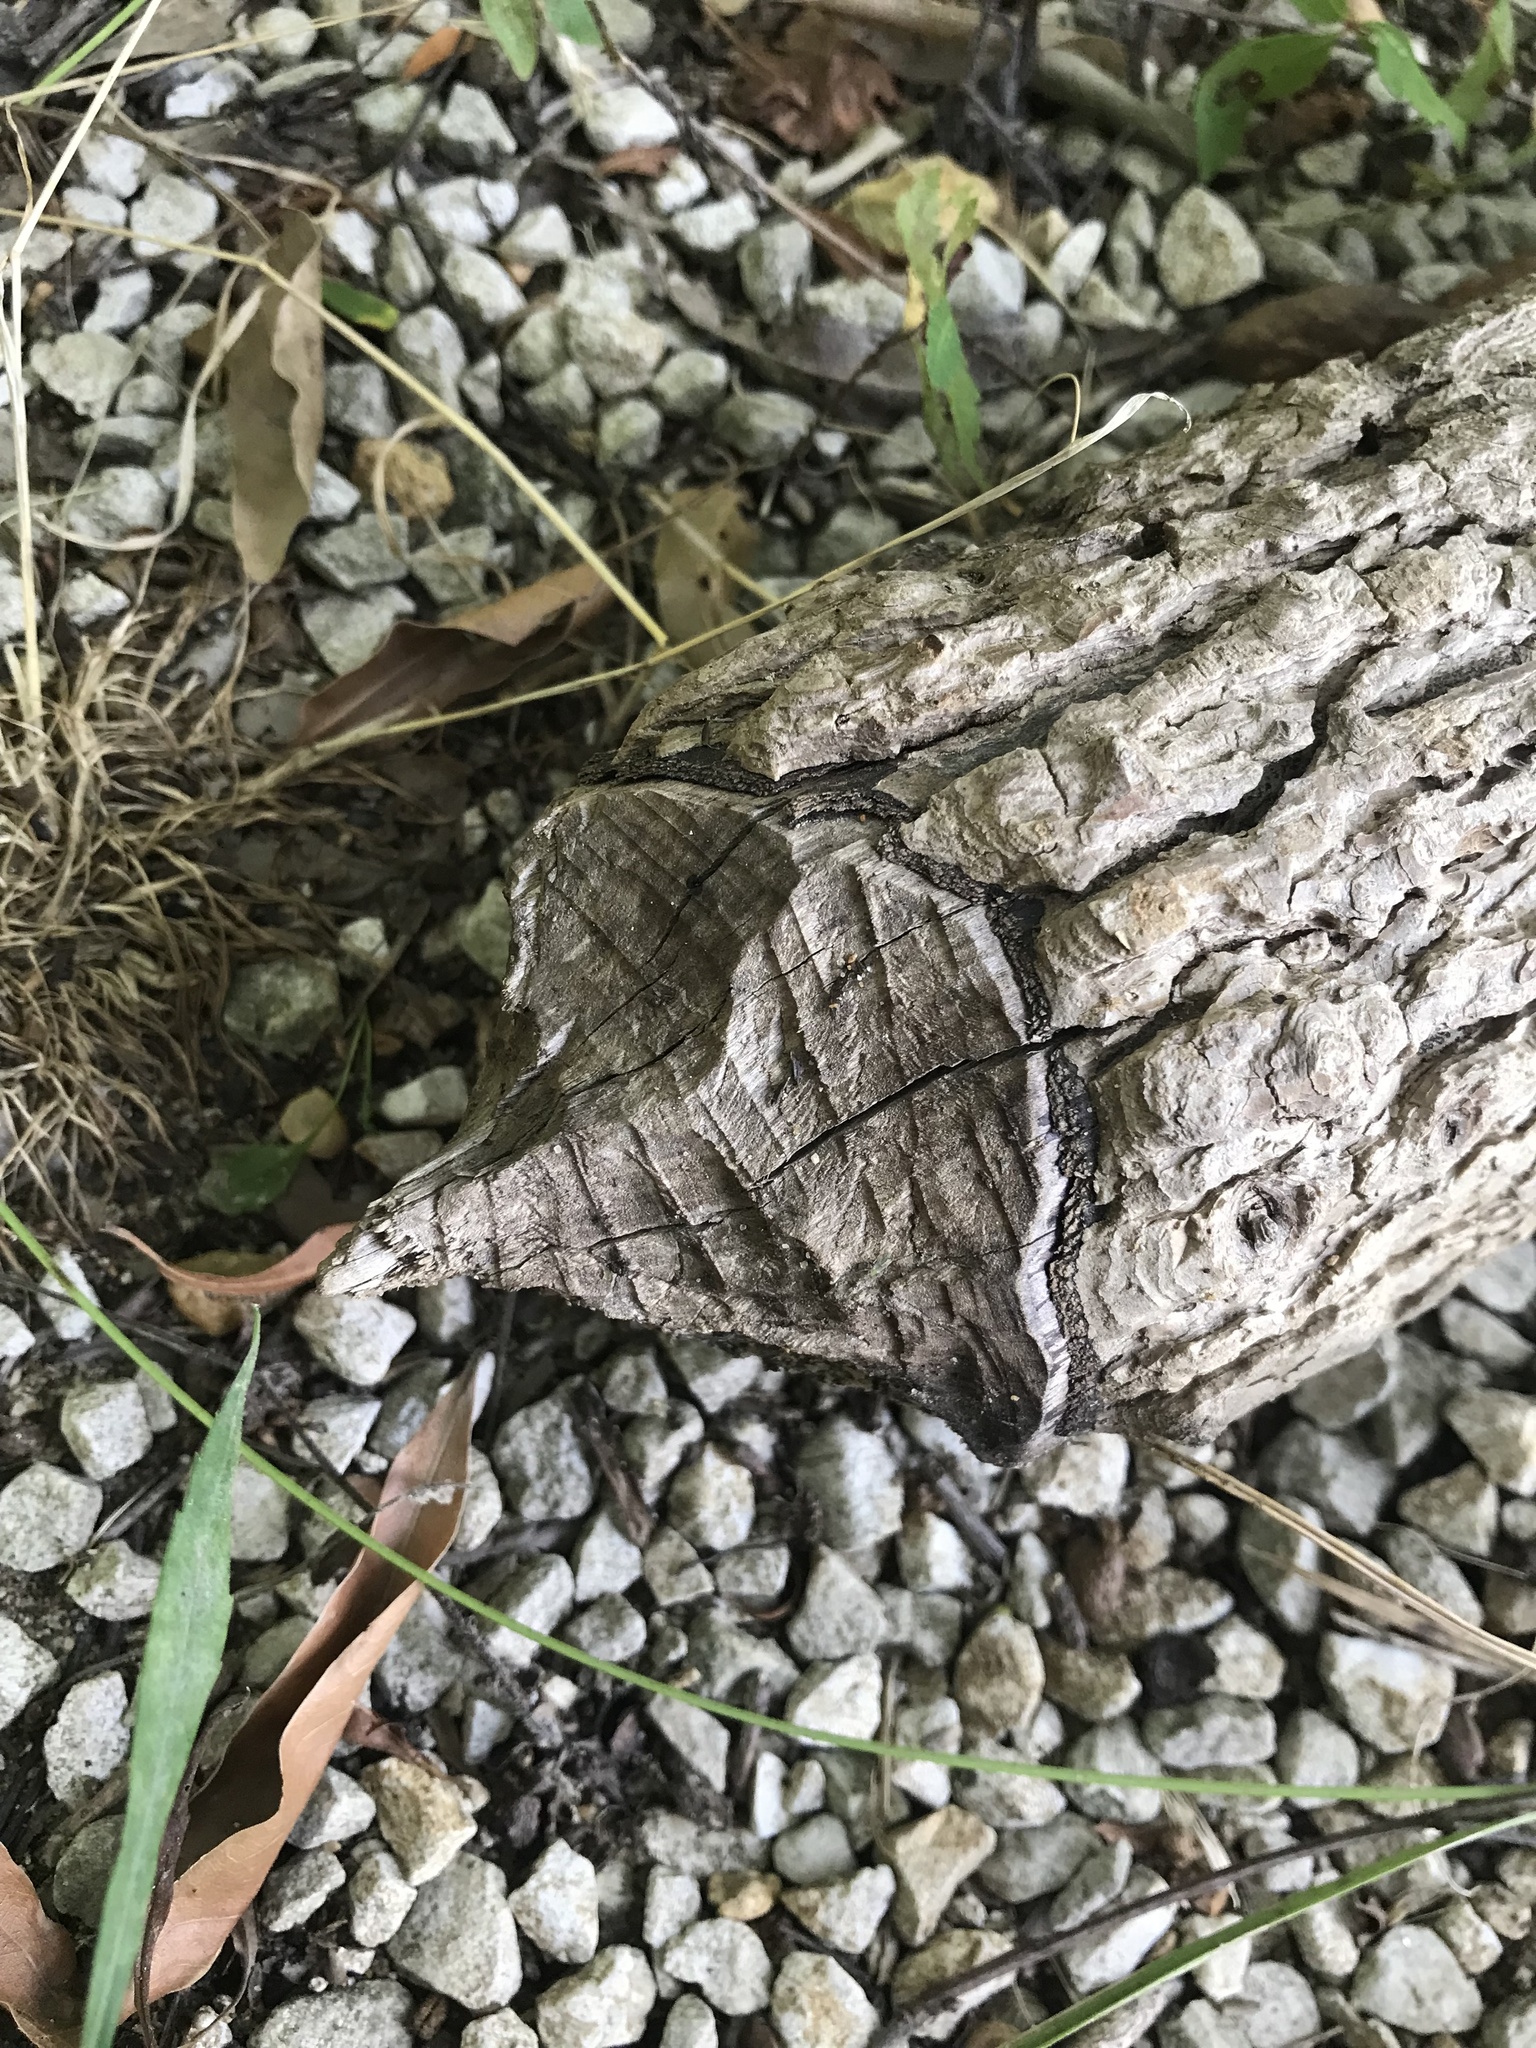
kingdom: Animalia
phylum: Chordata
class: Mammalia
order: Rodentia
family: Castoridae
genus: Castor
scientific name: Castor canadensis
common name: American beaver
